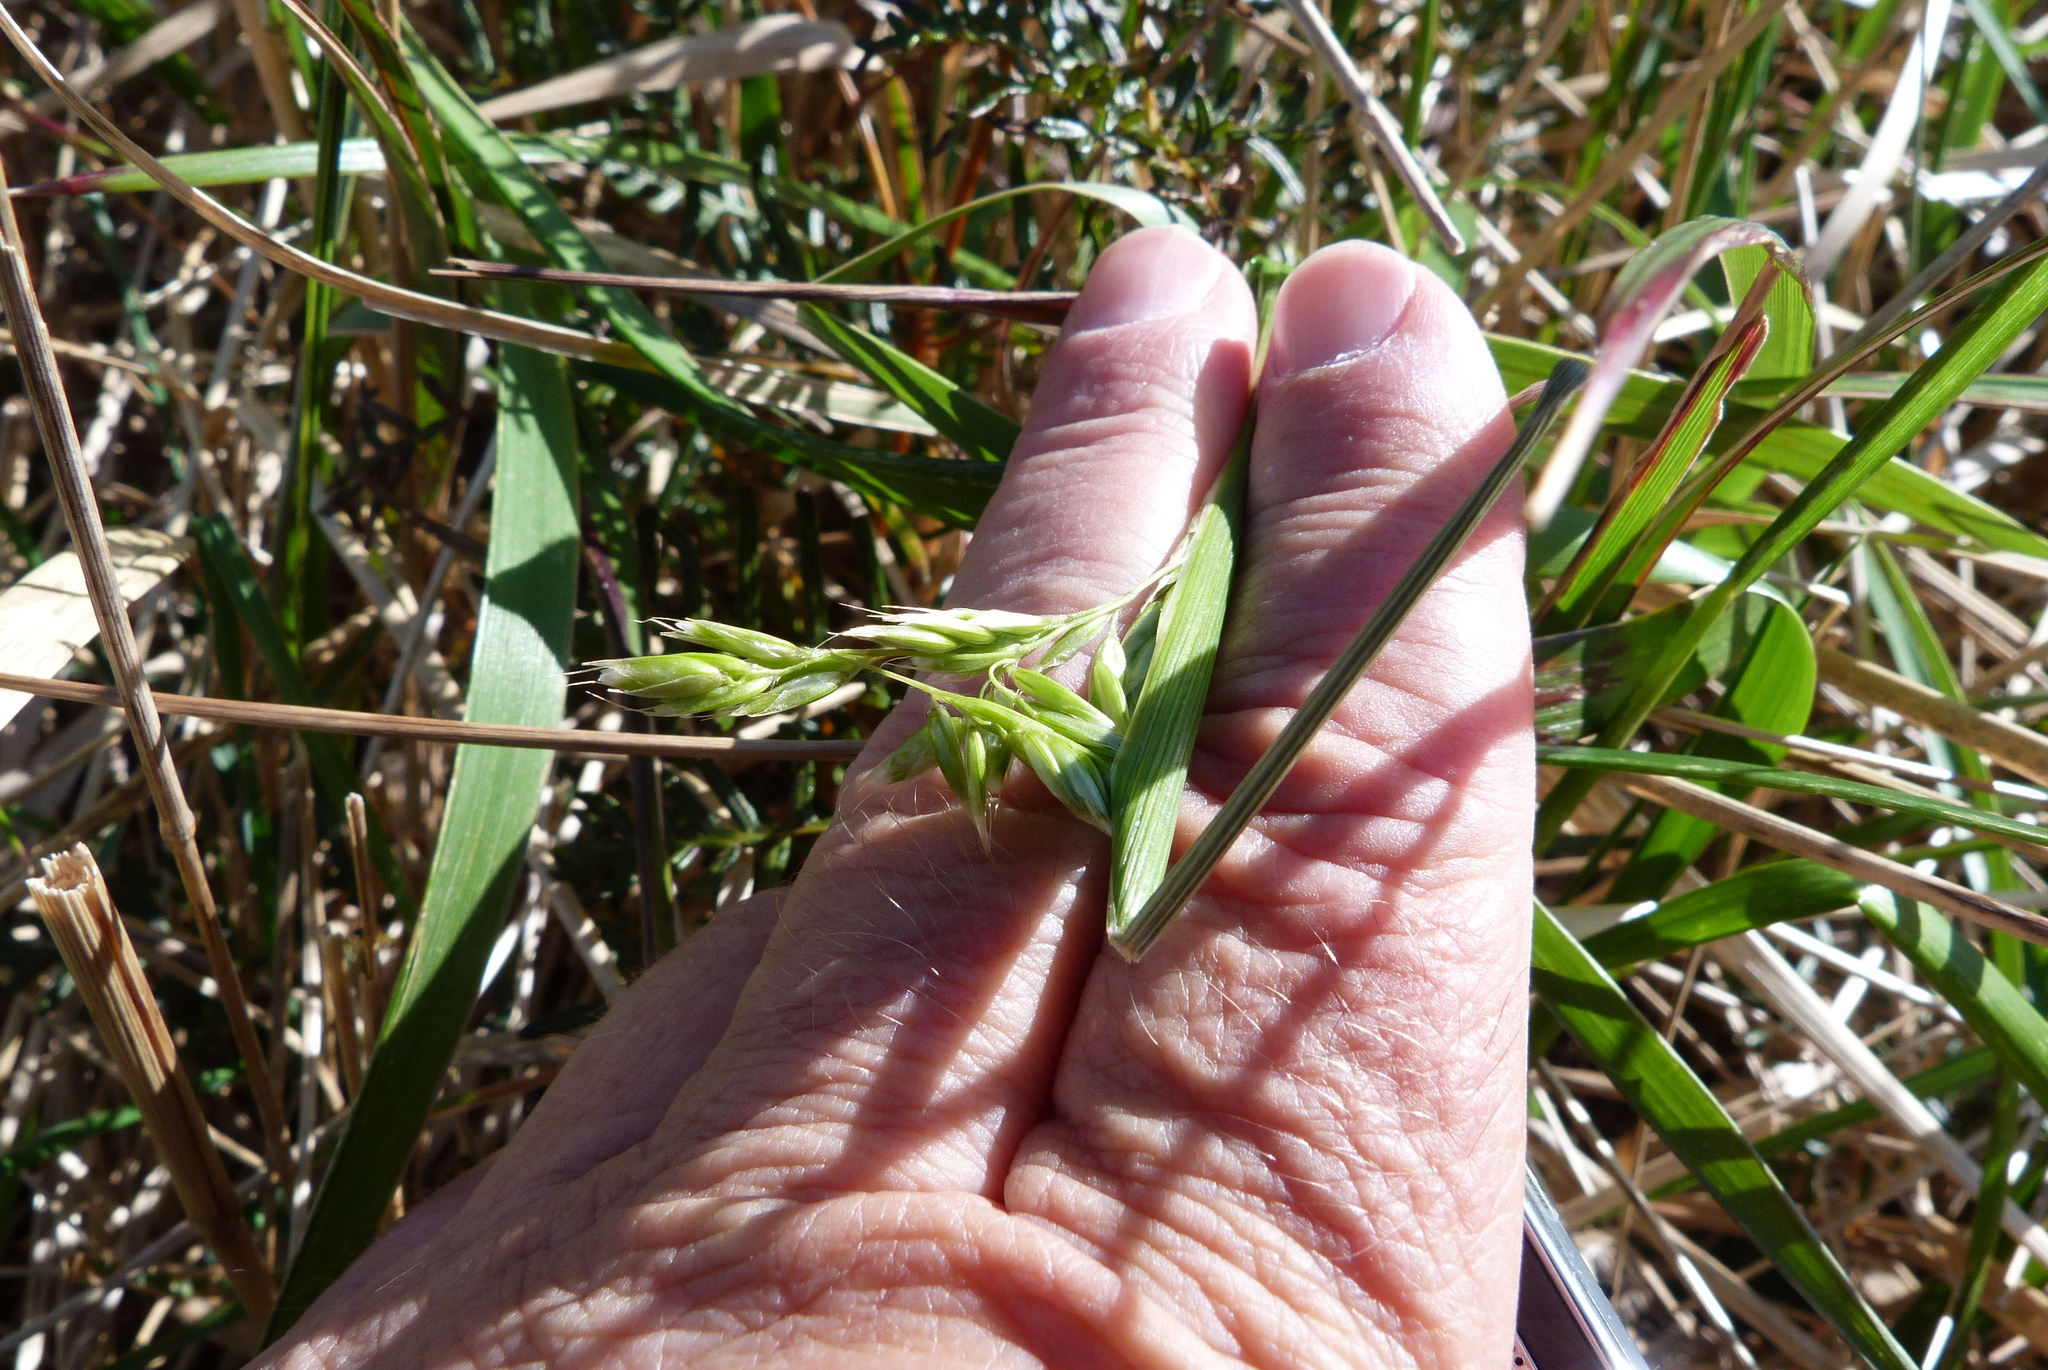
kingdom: Plantae
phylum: Tracheophyta
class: Liliopsida
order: Poales
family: Poaceae
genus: Anthoxanthum
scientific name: Anthoxanthum redolens
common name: Sweet holy grass
